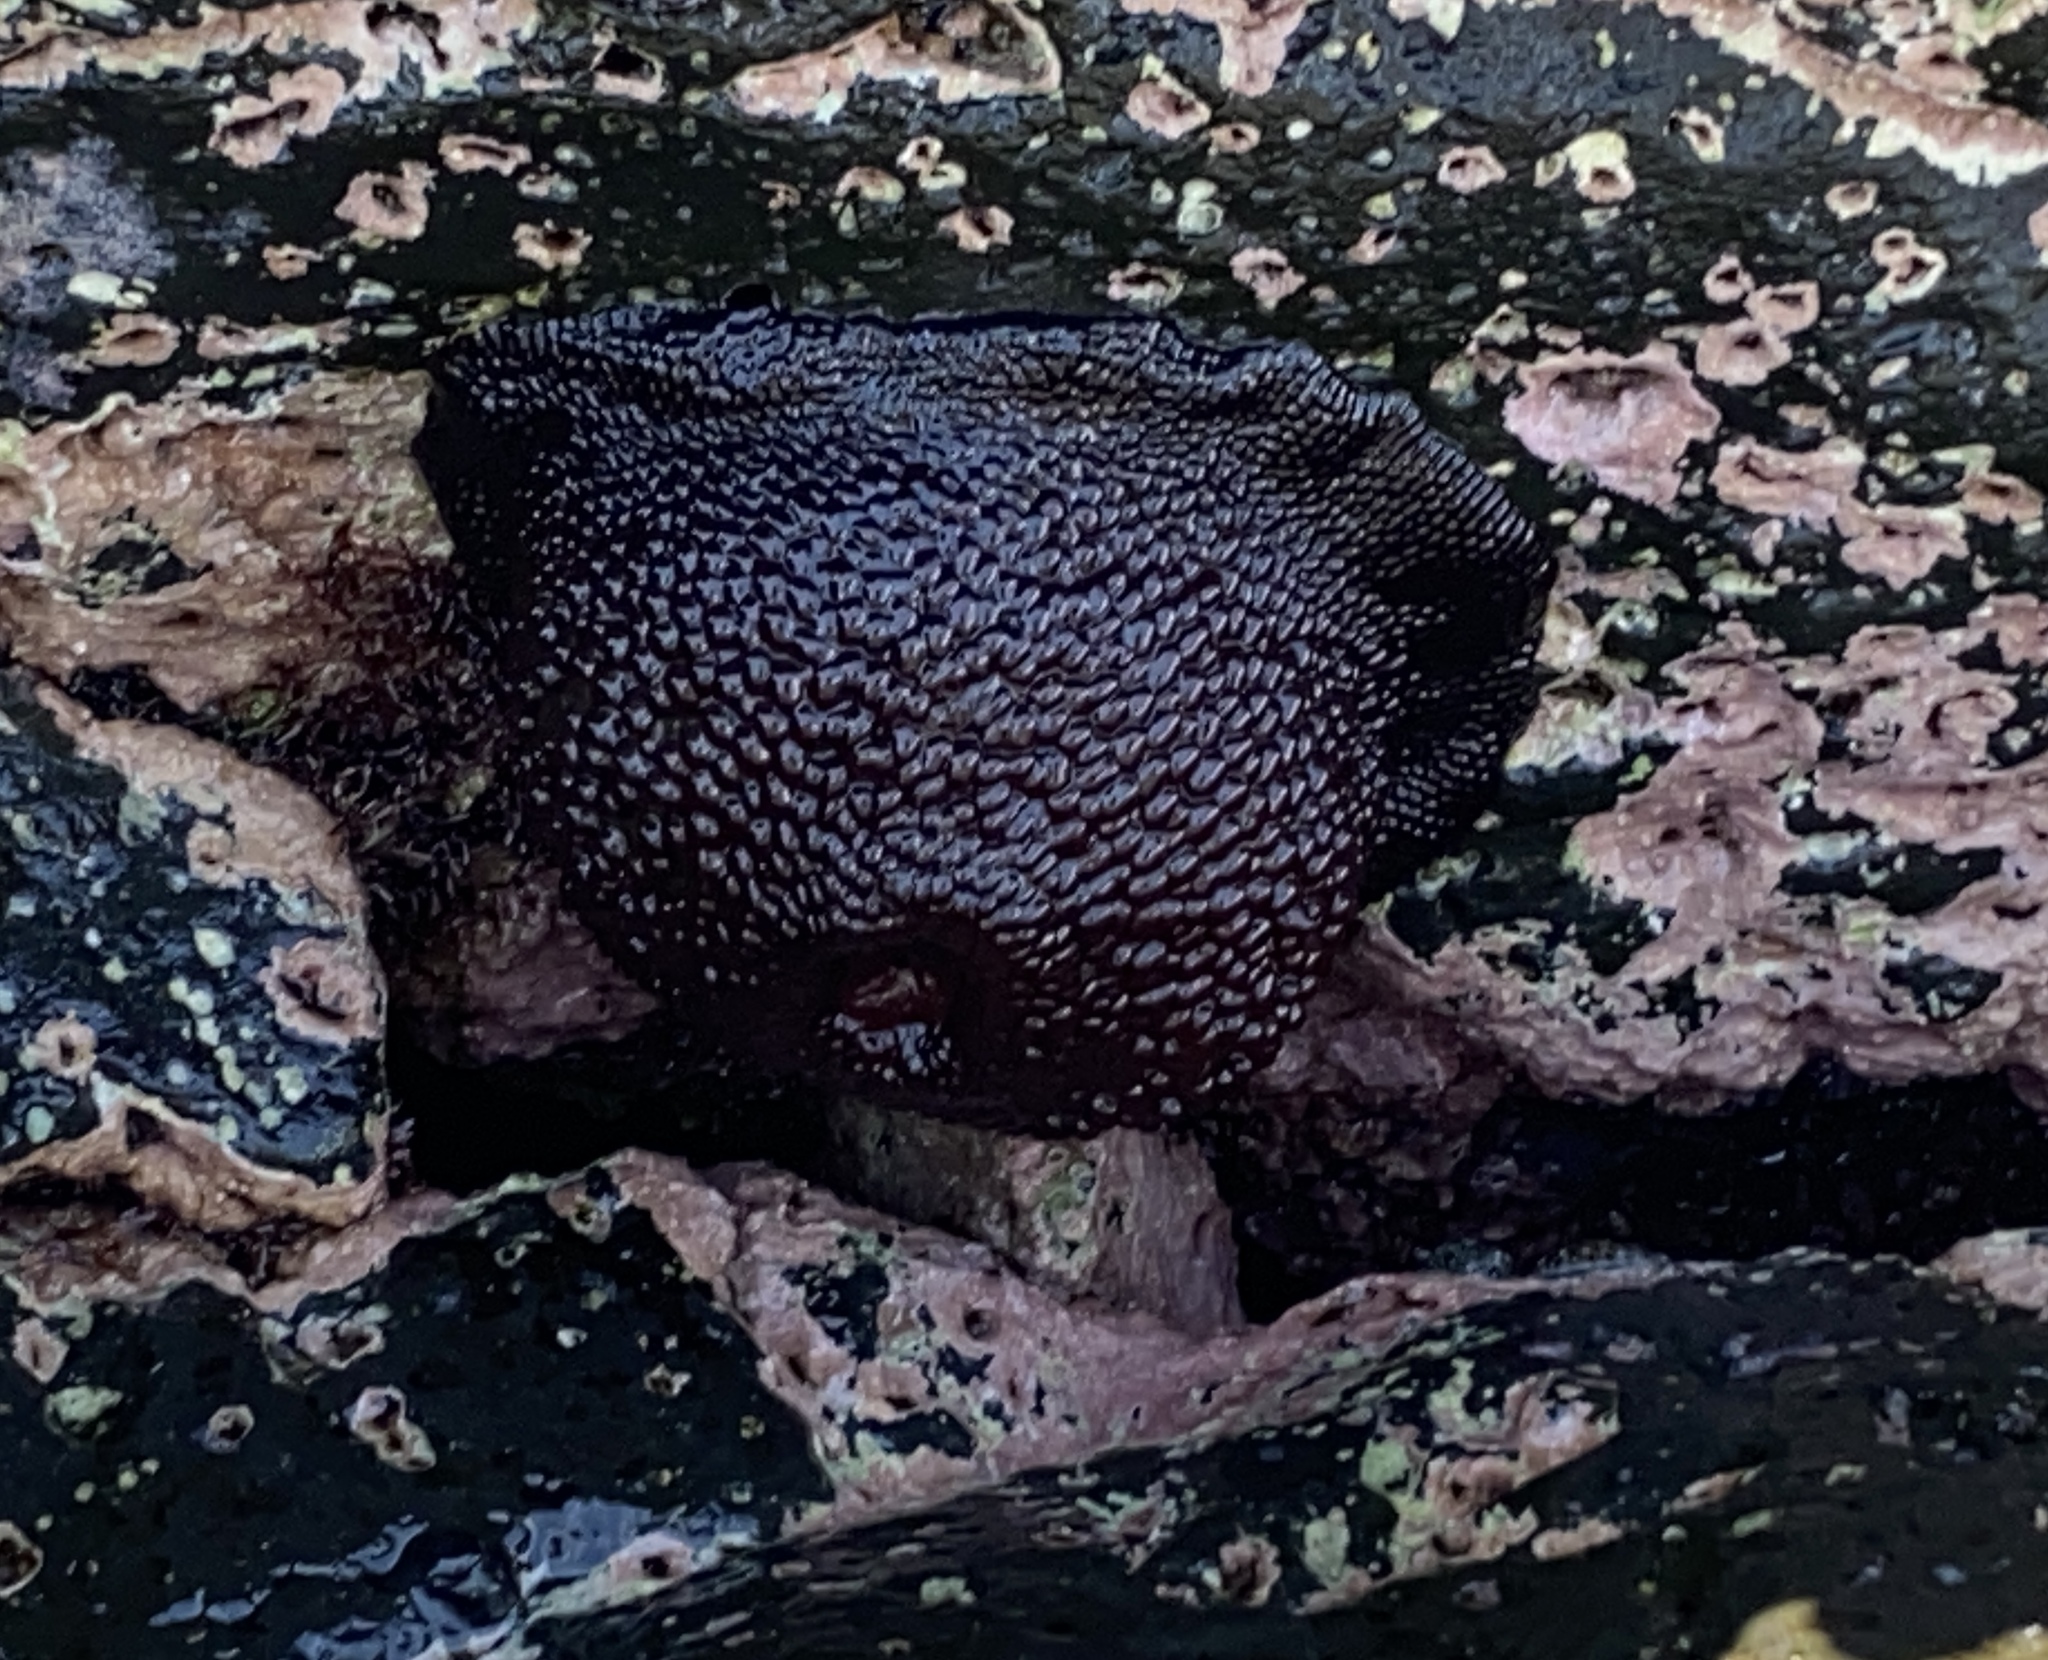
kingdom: Animalia
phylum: Cnidaria
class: Anthozoa
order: Actiniaria
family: Actiniidae
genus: Cladactella
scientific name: Cladactella manni
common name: Mann's anemone
